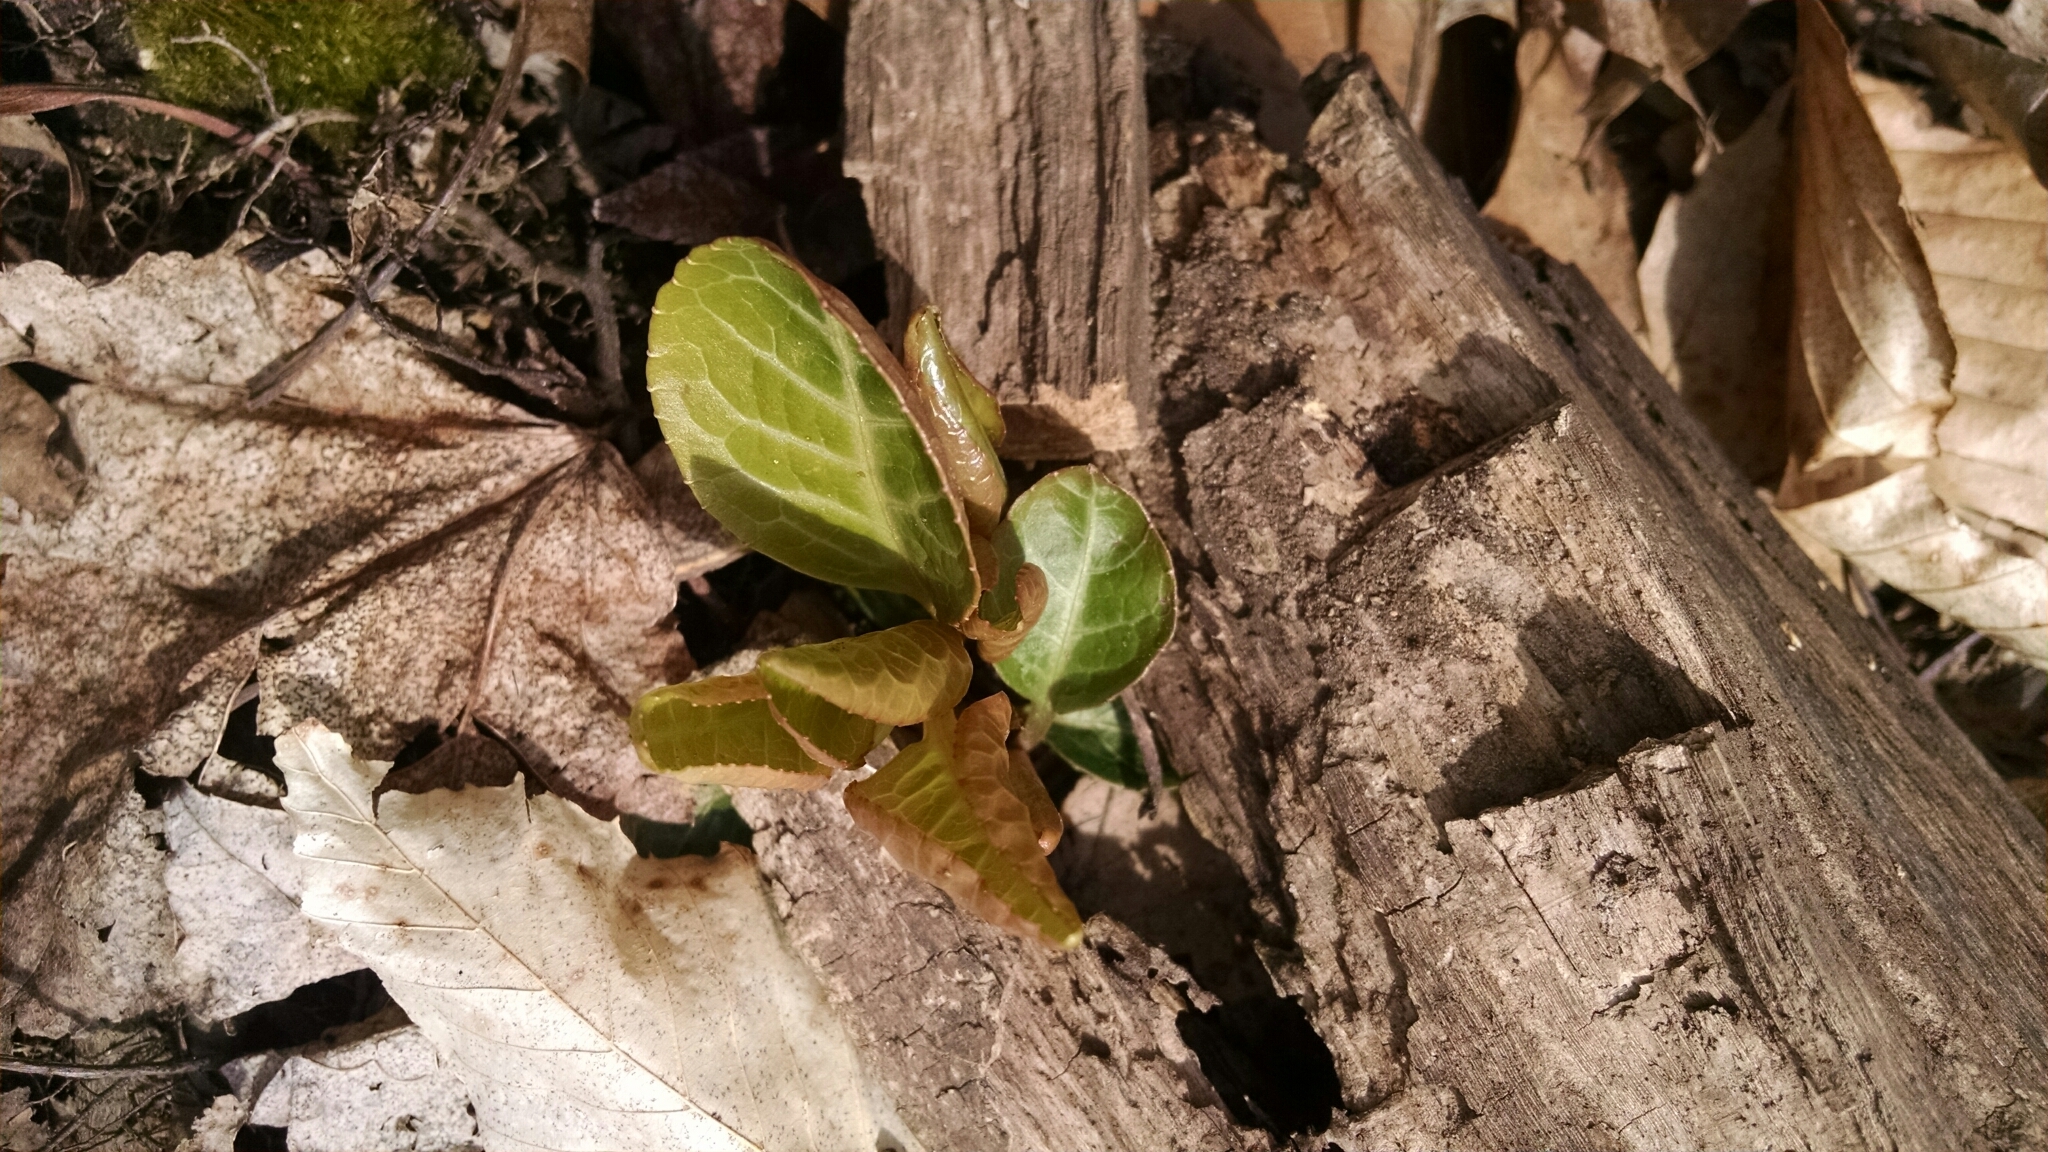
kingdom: Plantae
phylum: Tracheophyta
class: Magnoliopsida
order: Ericales
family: Ericaceae
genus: Pyrola
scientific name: Pyrola americana
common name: American wintergreen
